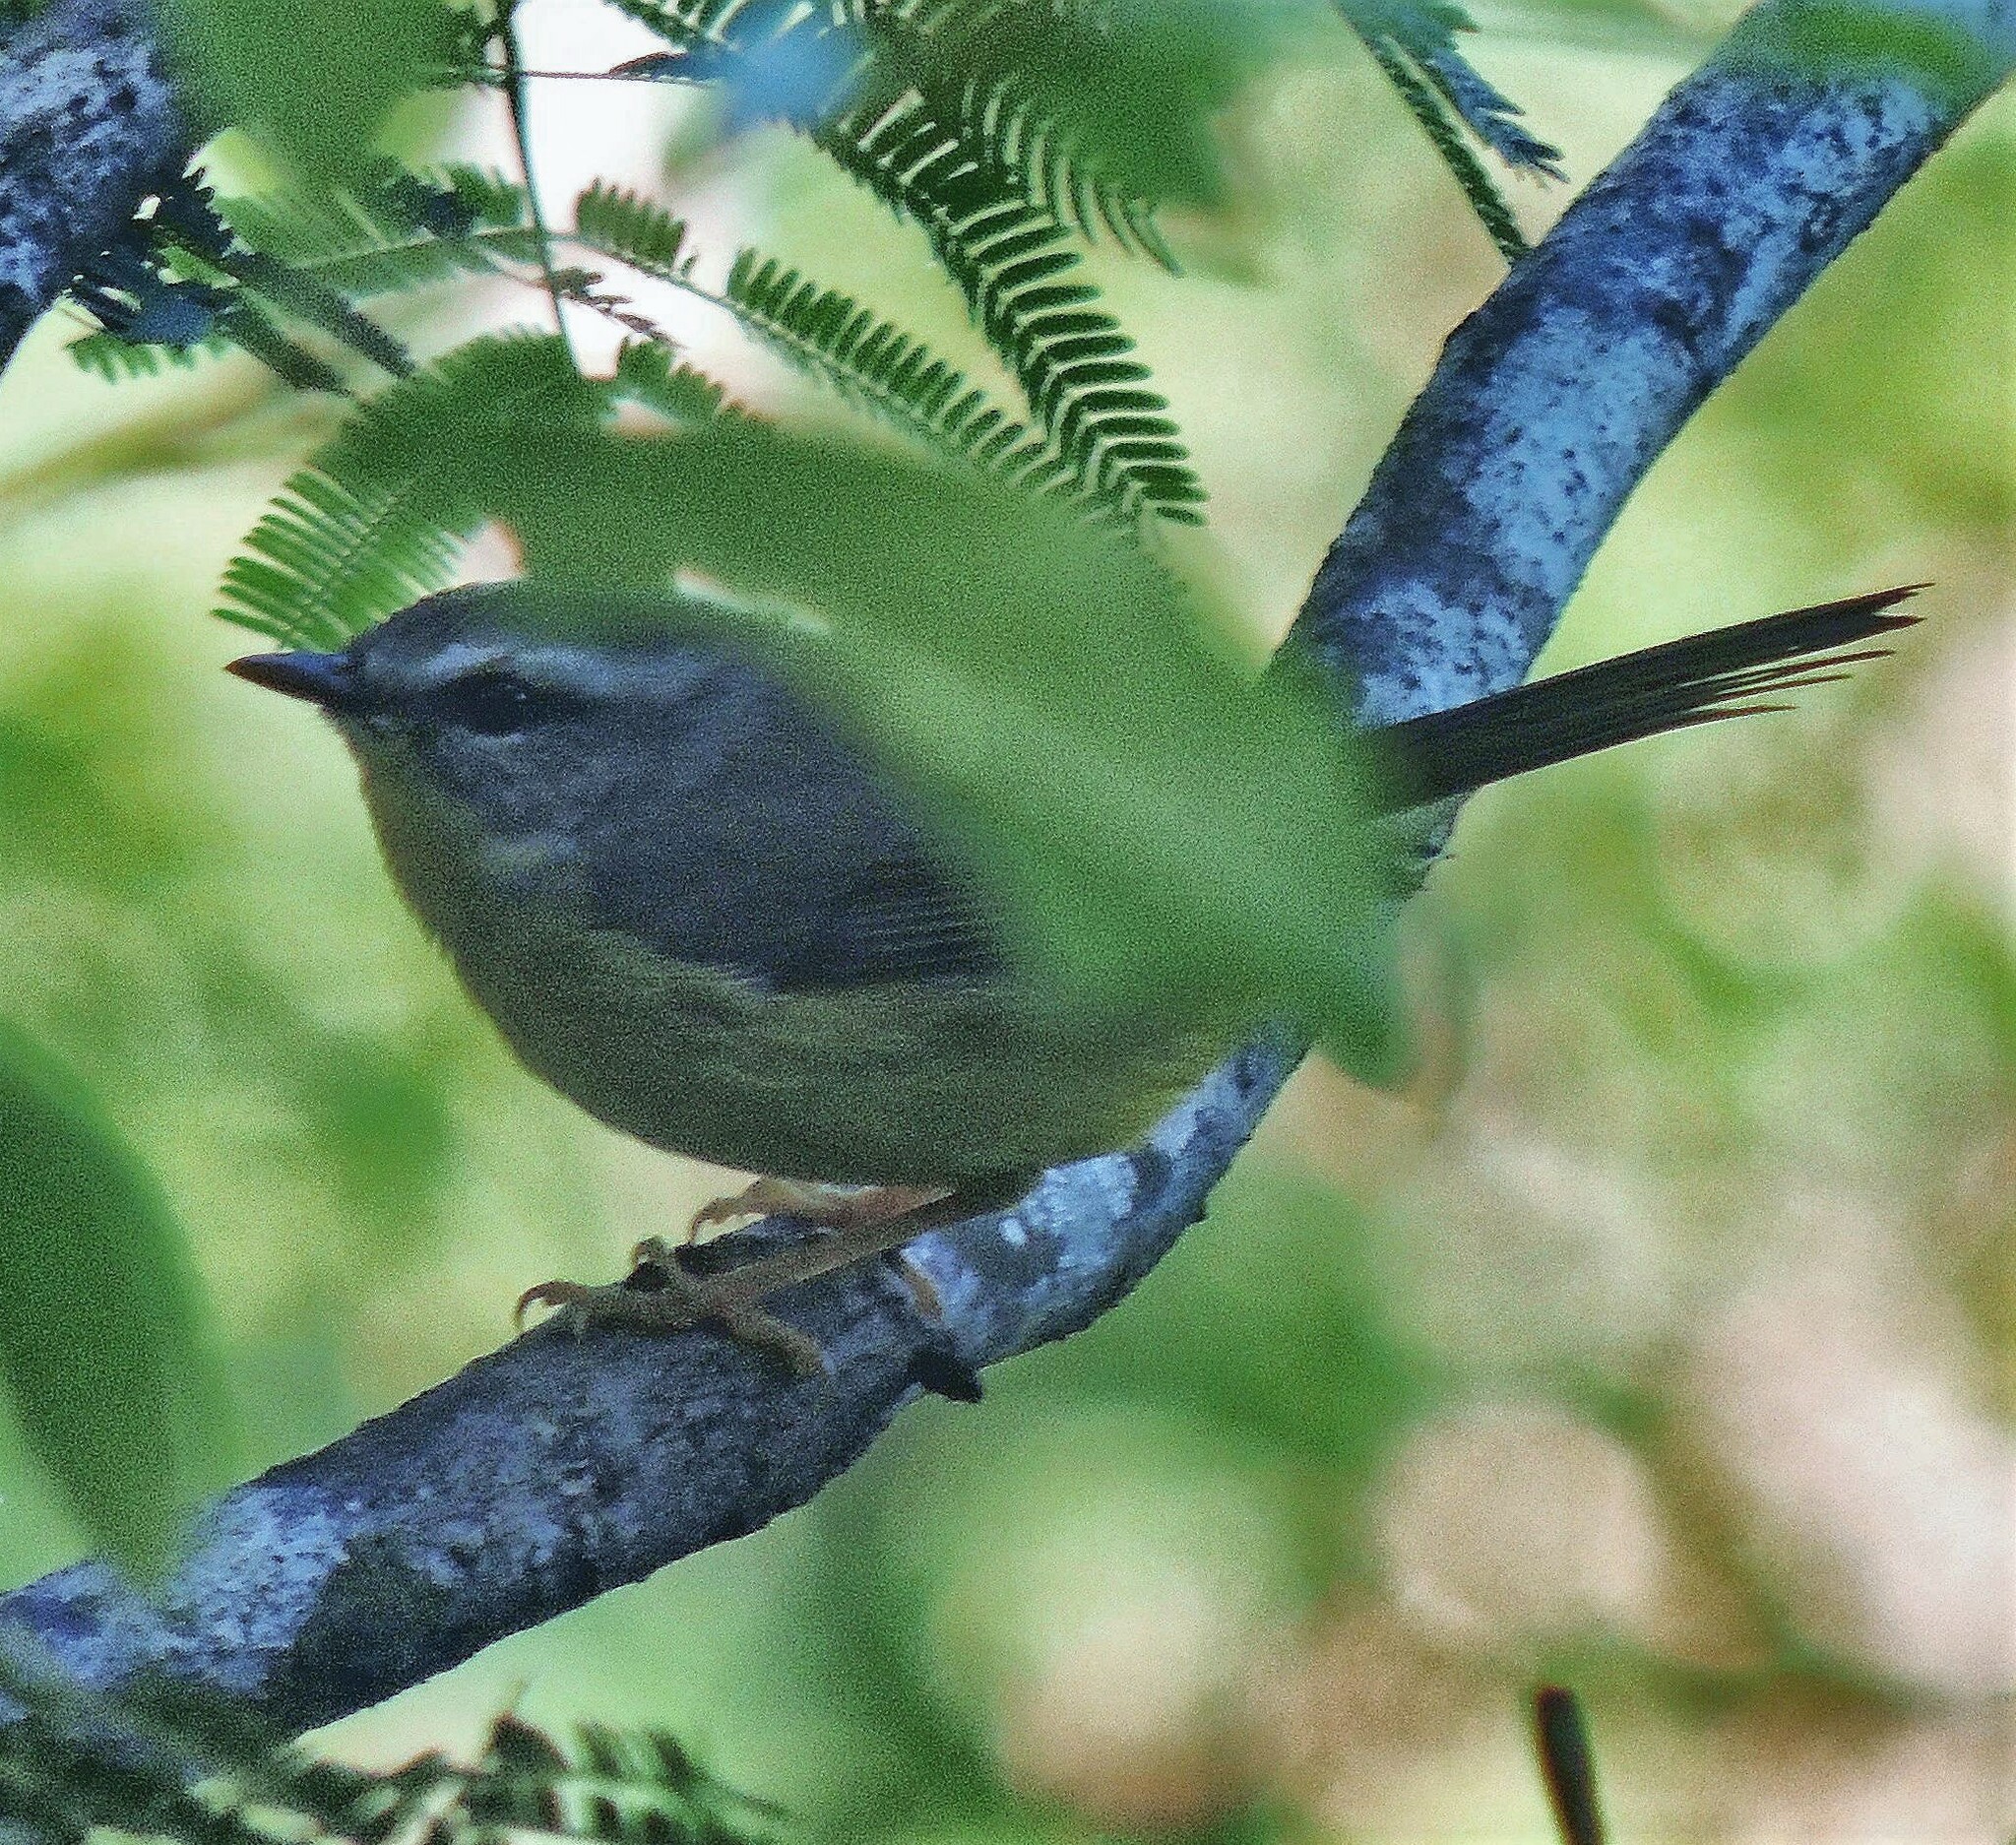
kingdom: Animalia
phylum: Chordata
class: Aves
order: Passeriformes
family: Parulidae
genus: Basileuterus
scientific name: Basileuterus culicivorus
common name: Golden-crowned warbler
